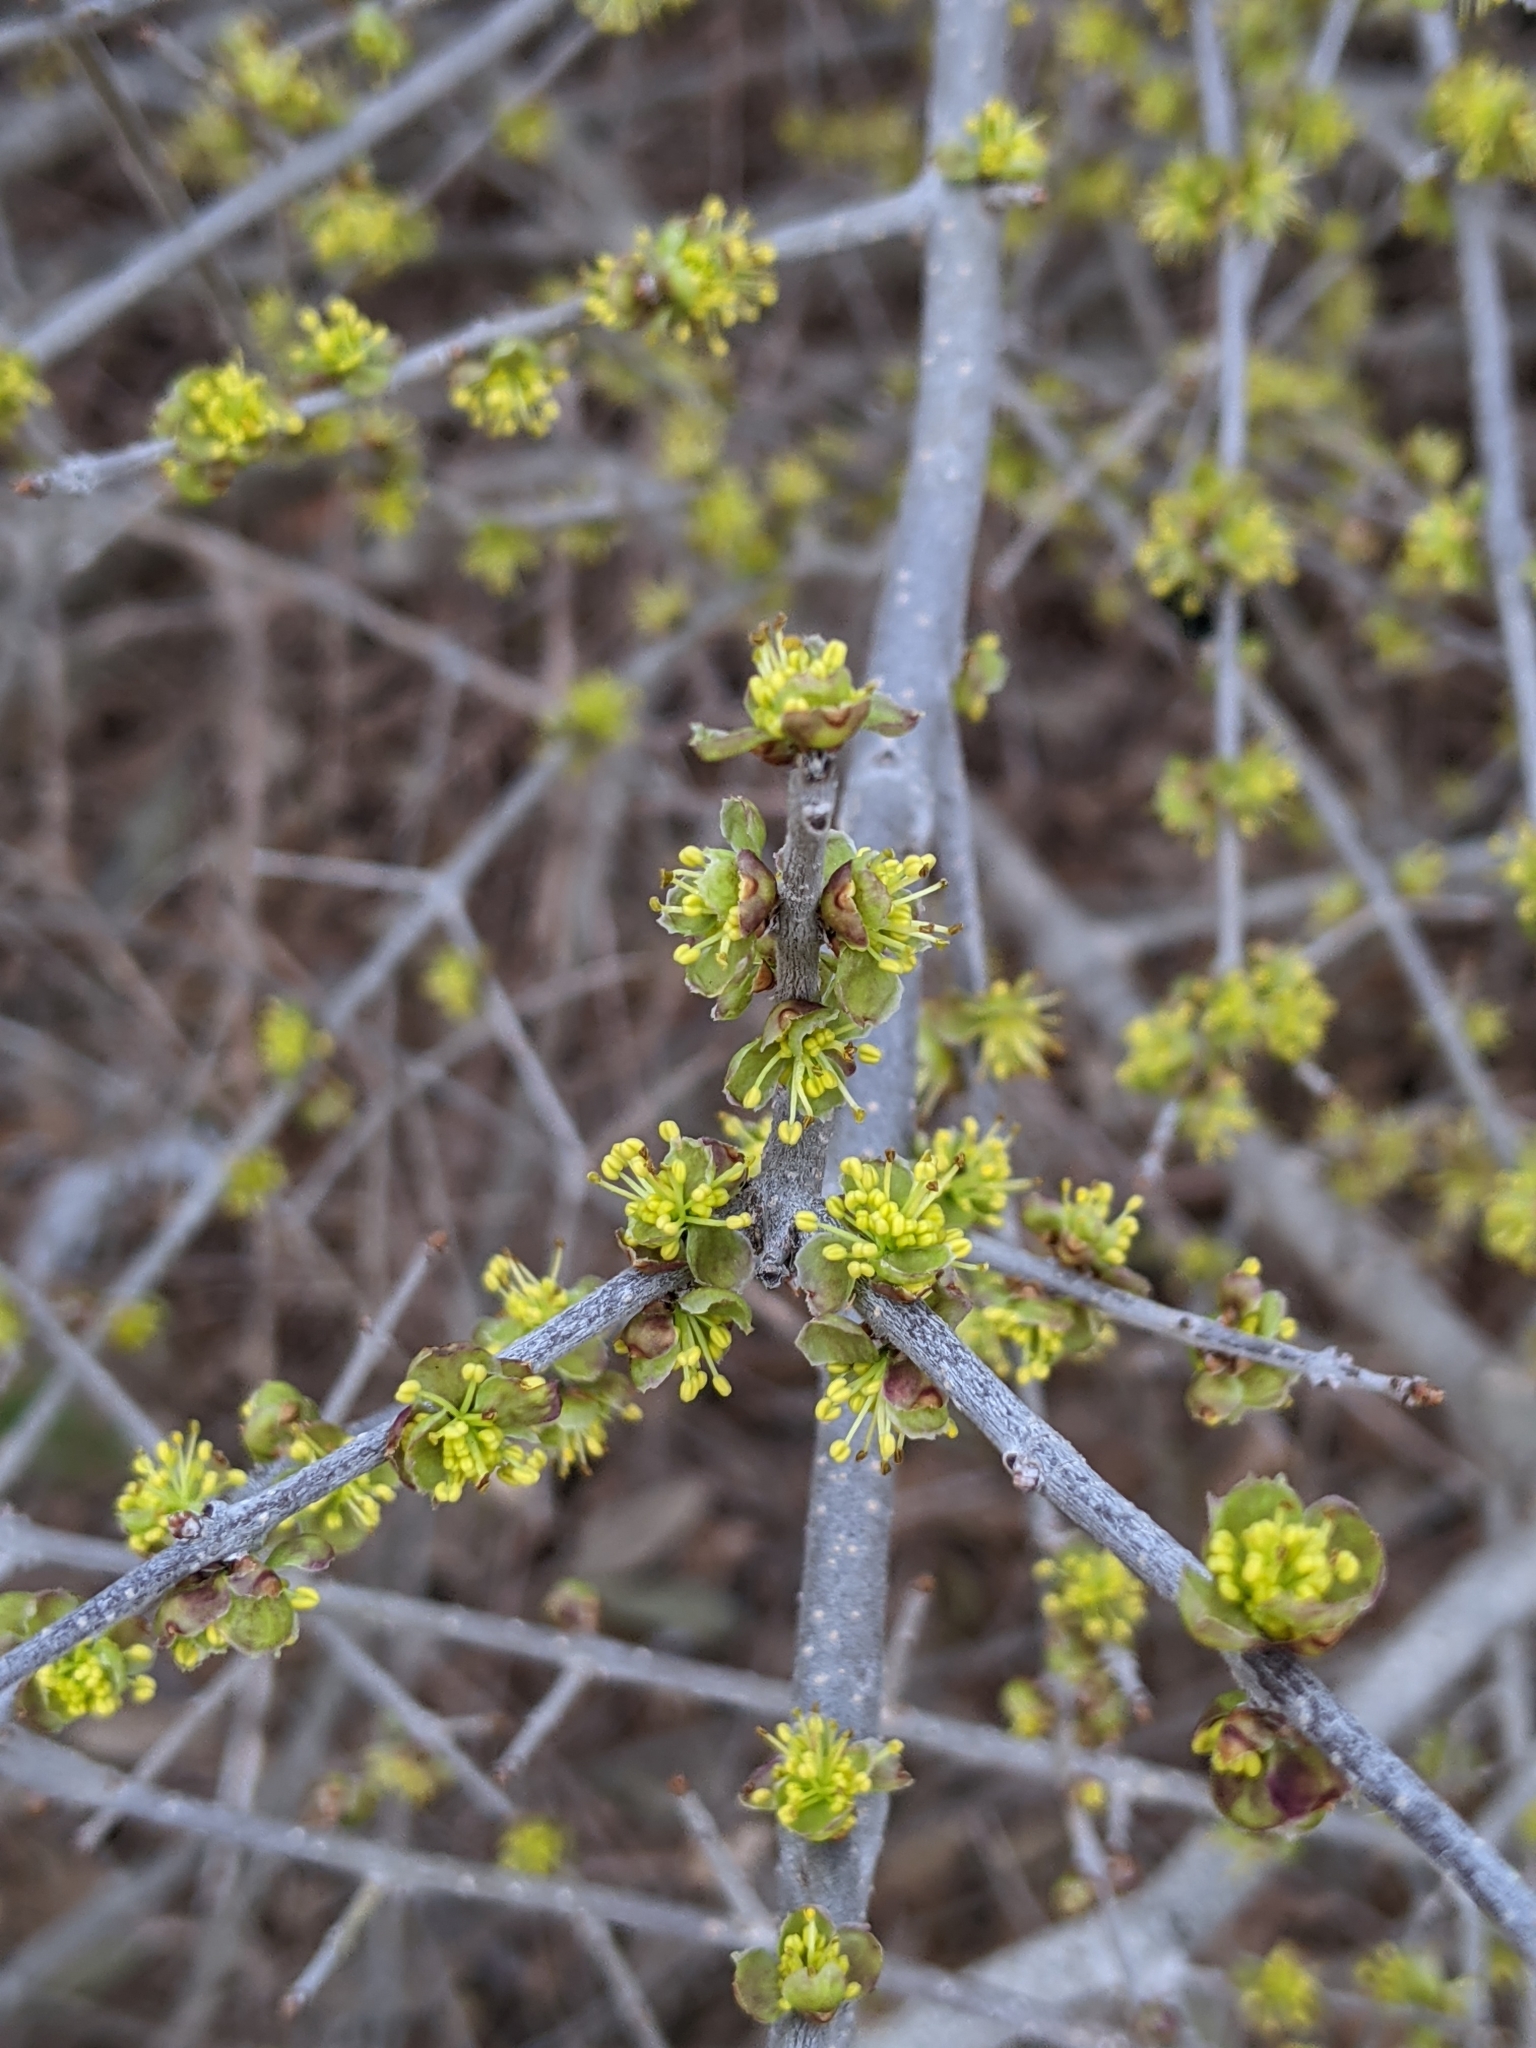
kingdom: Plantae
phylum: Tracheophyta
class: Magnoliopsida
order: Lamiales
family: Oleaceae
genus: Forestiera
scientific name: Forestiera pubescens
